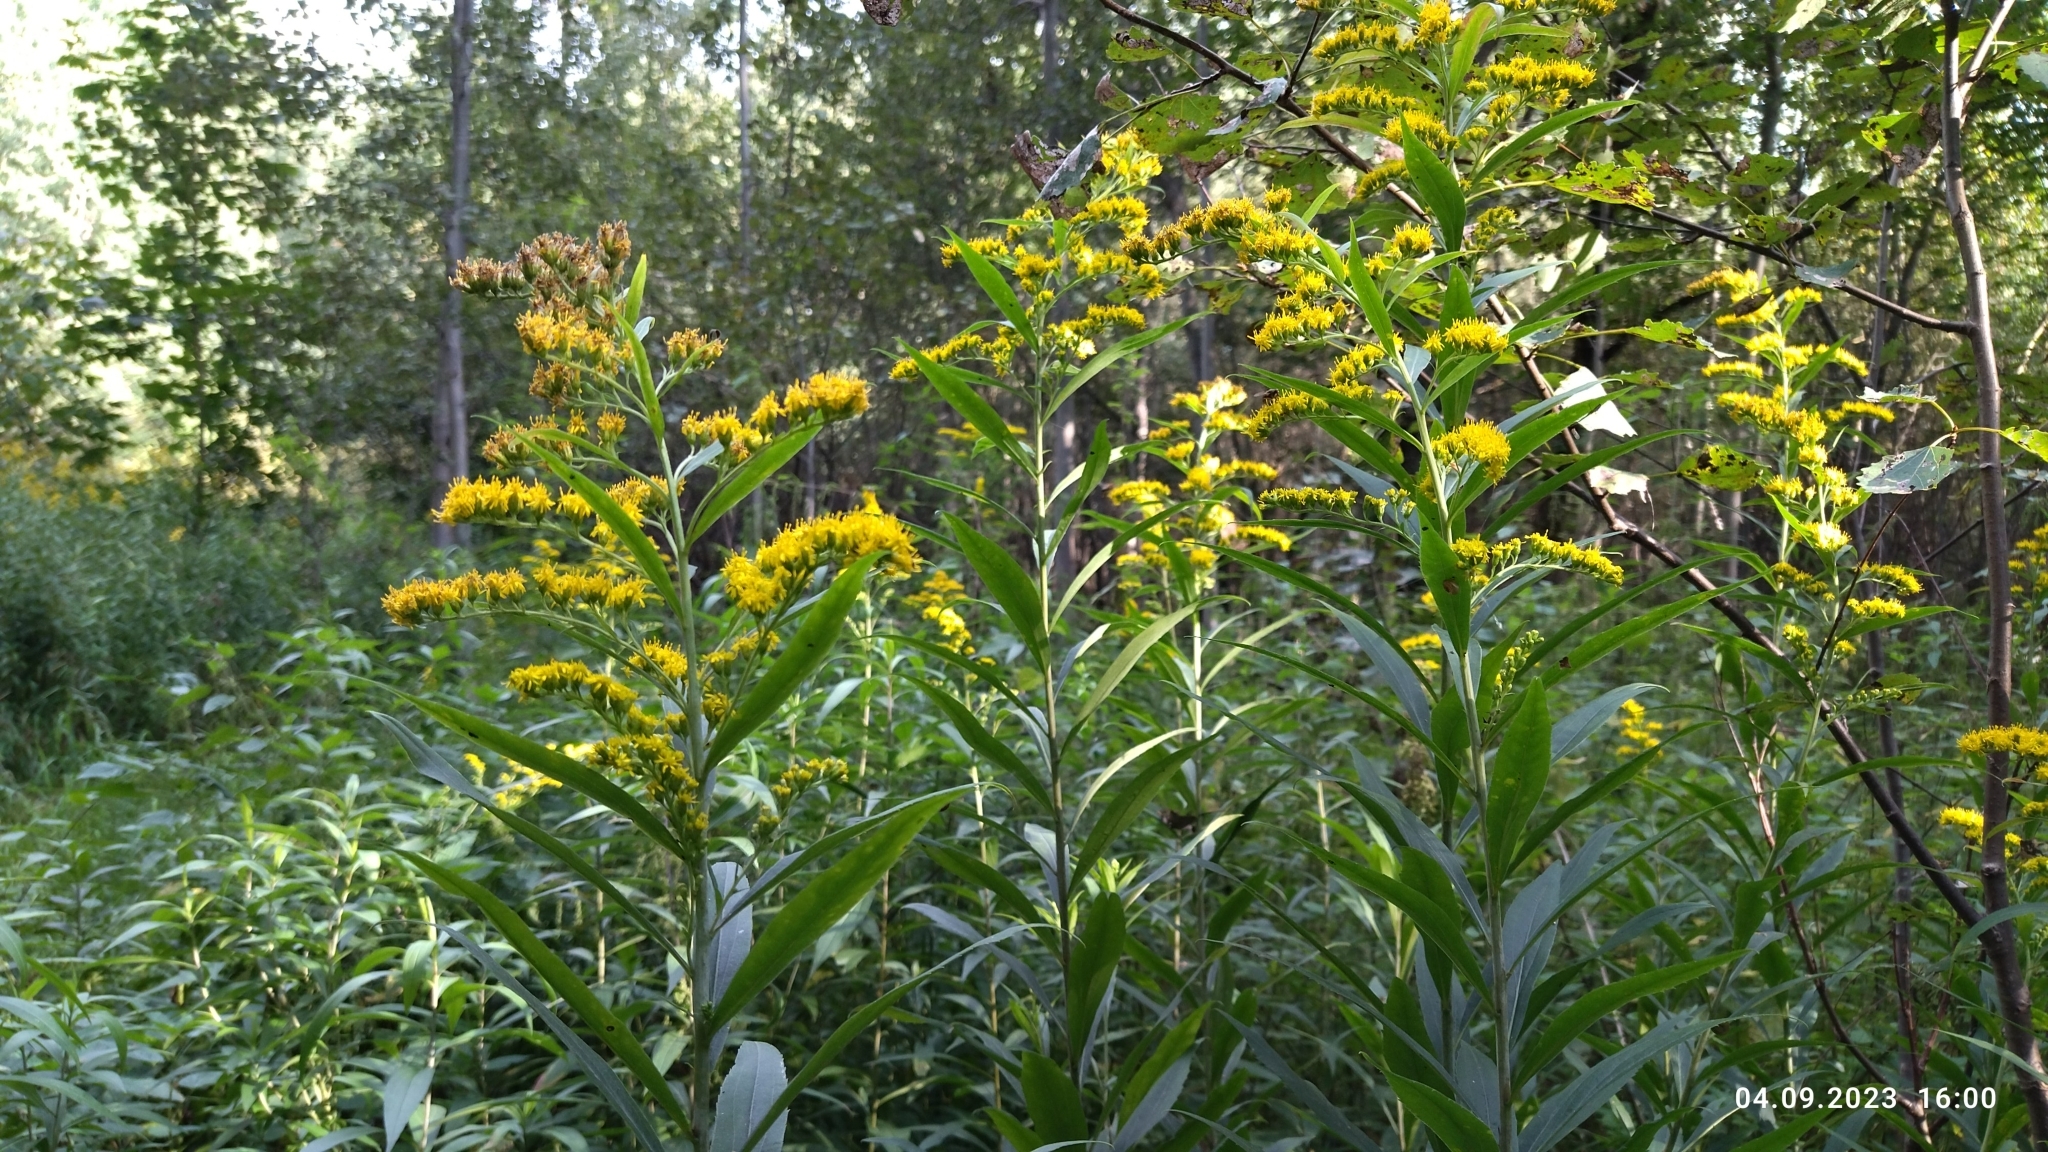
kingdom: Plantae
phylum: Tracheophyta
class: Magnoliopsida
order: Asterales
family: Asteraceae
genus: Solidago
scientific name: Solidago gigantea
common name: Giant goldenrod
